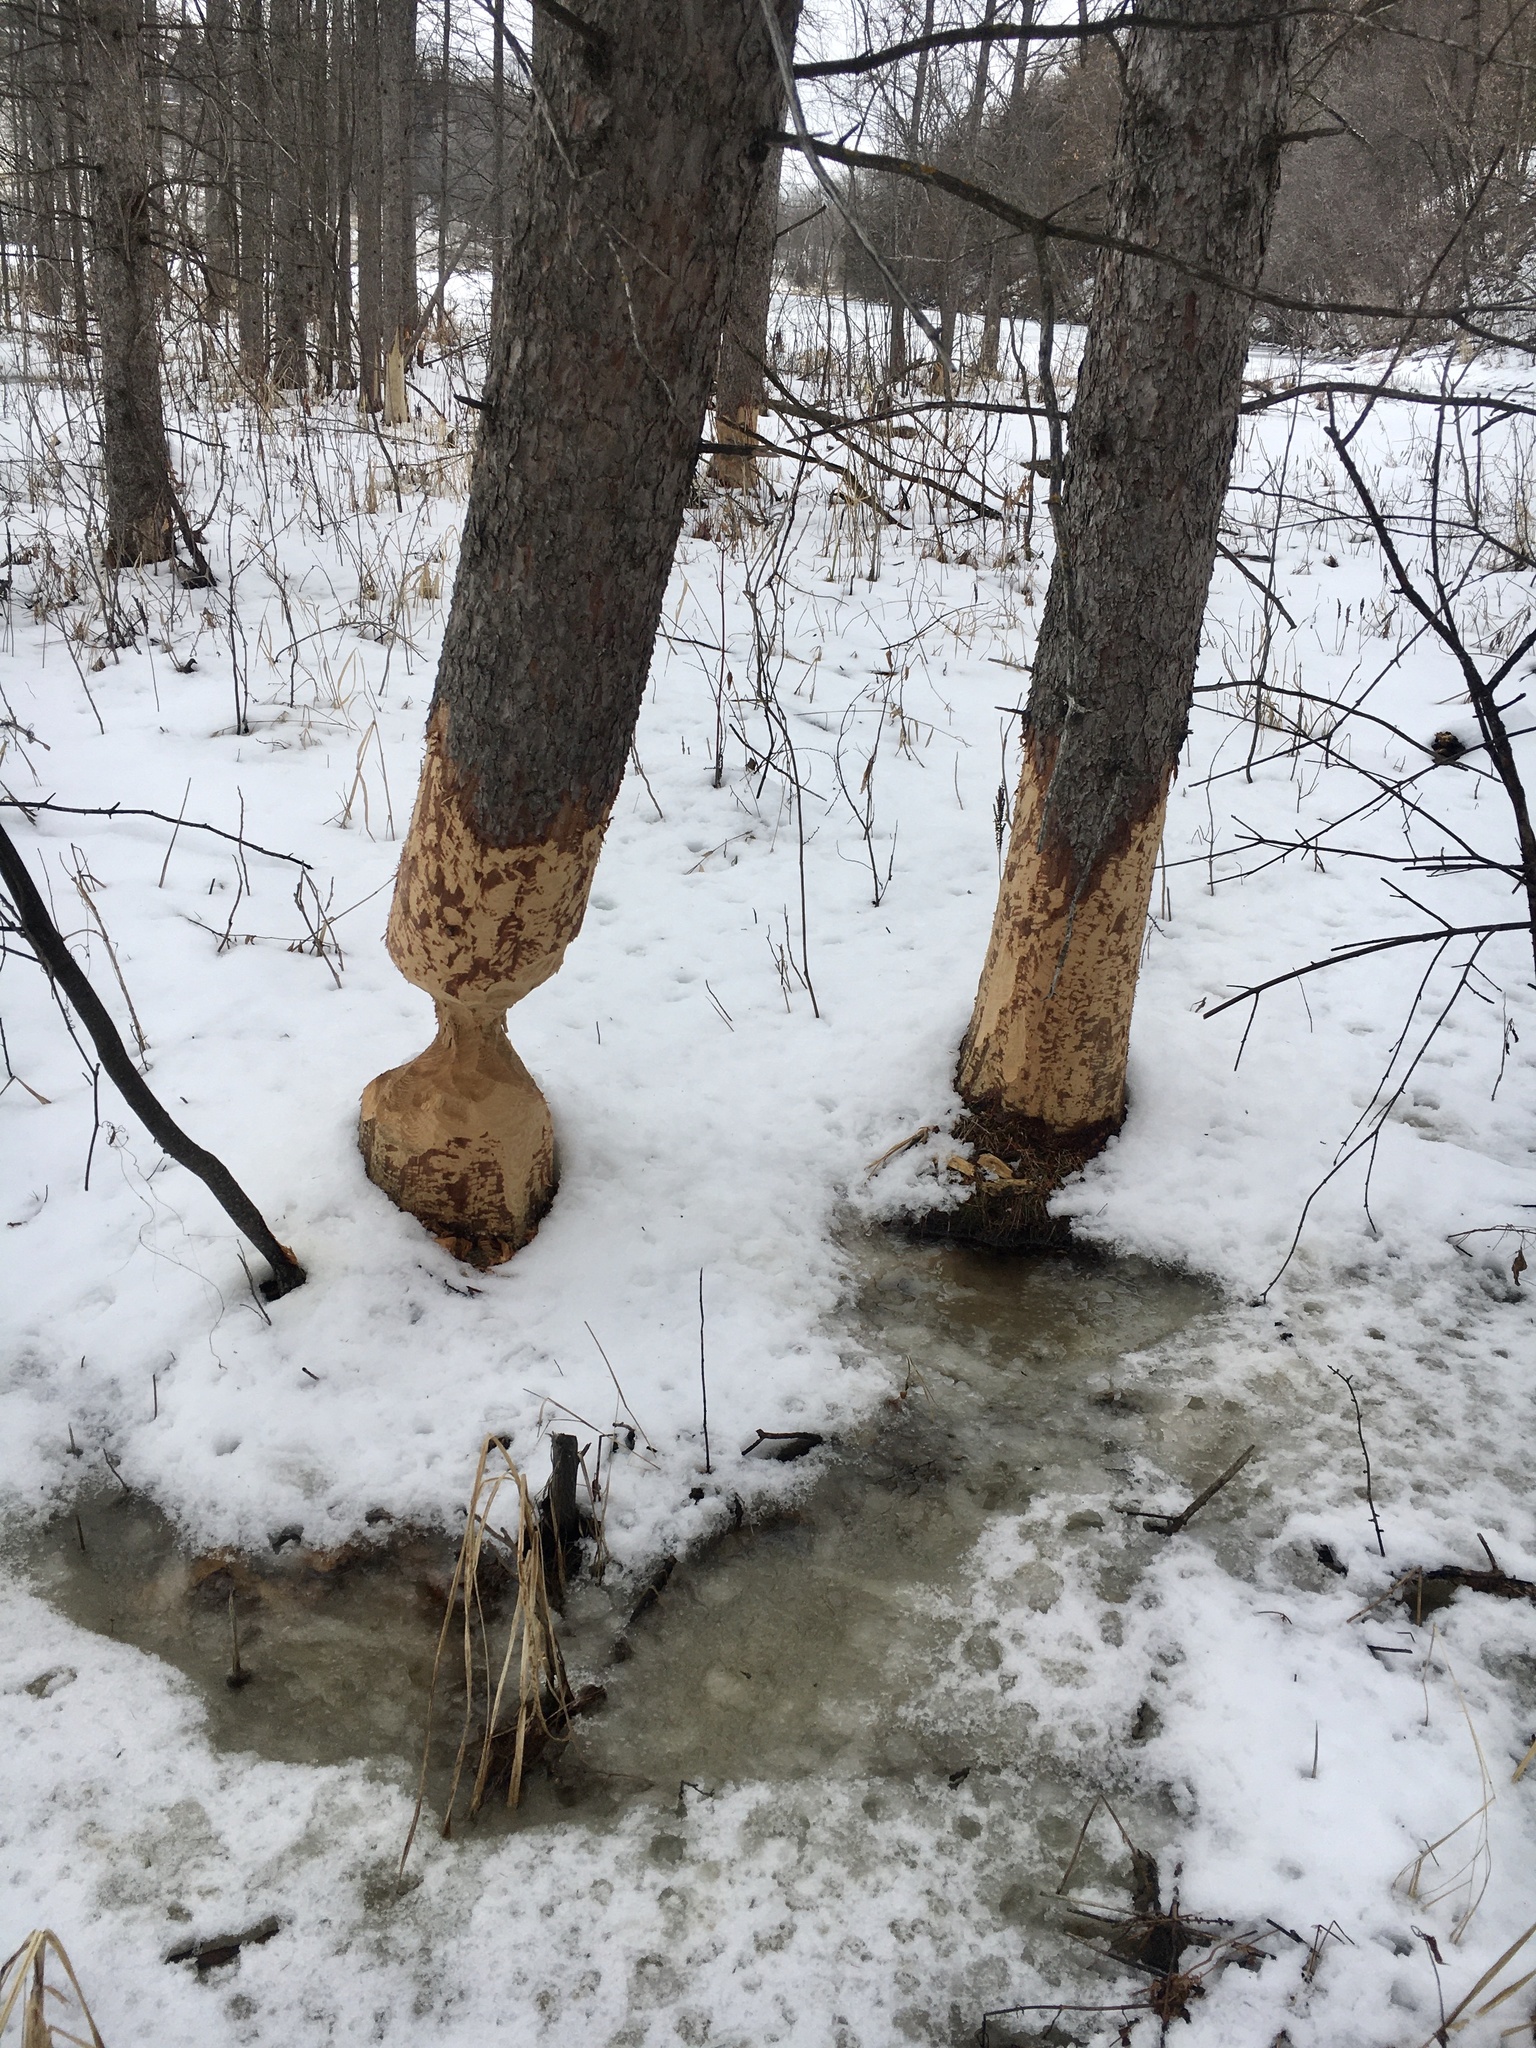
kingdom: Animalia
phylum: Chordata
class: Mammalia
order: Rodentia
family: Castoridae
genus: Castor
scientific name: Castor canadensis
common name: American beaver
